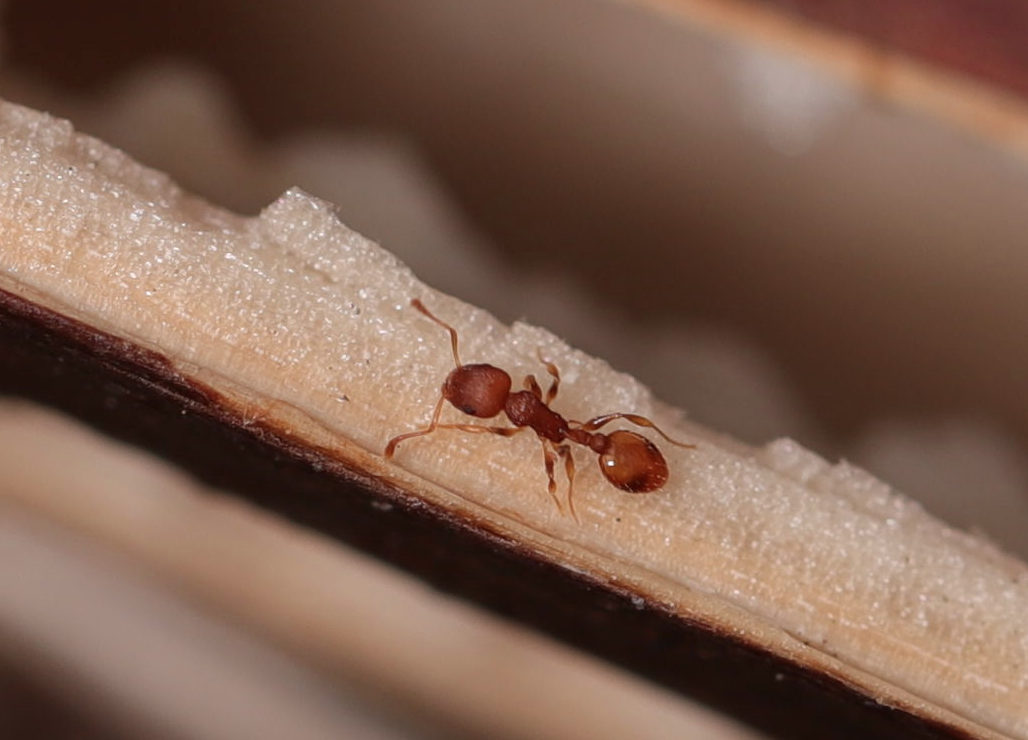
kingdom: Animalia
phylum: Arthropoda
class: Insecta
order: Hymenoptera
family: Formicidae
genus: Temnothorax
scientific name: Temnothorax curvispinosus
